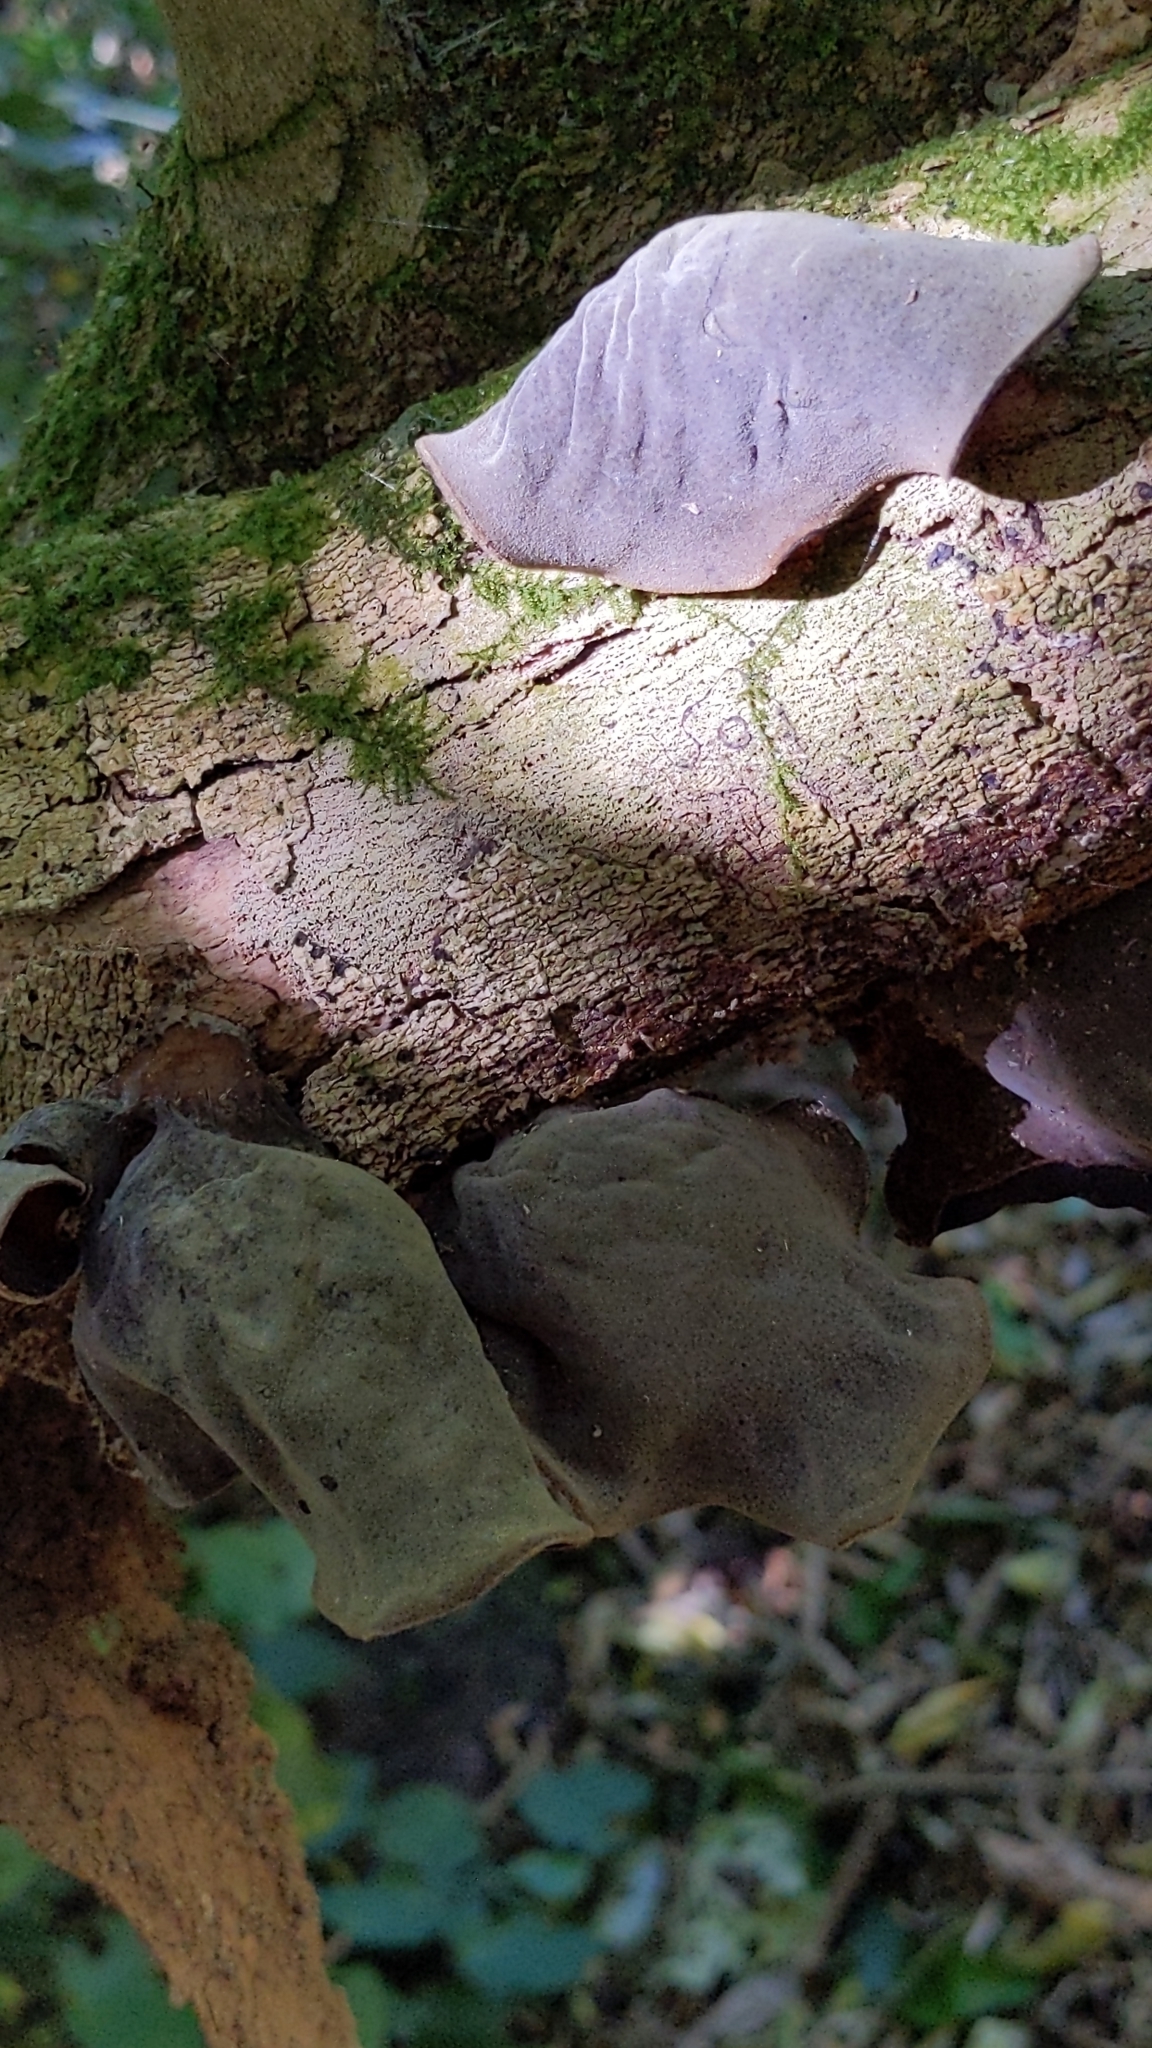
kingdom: Fungi
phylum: Basidiomycota
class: Agaricomycetes
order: Auriculariales
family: Auriculariaceae
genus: Auricularia
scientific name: Auricularia cornea
